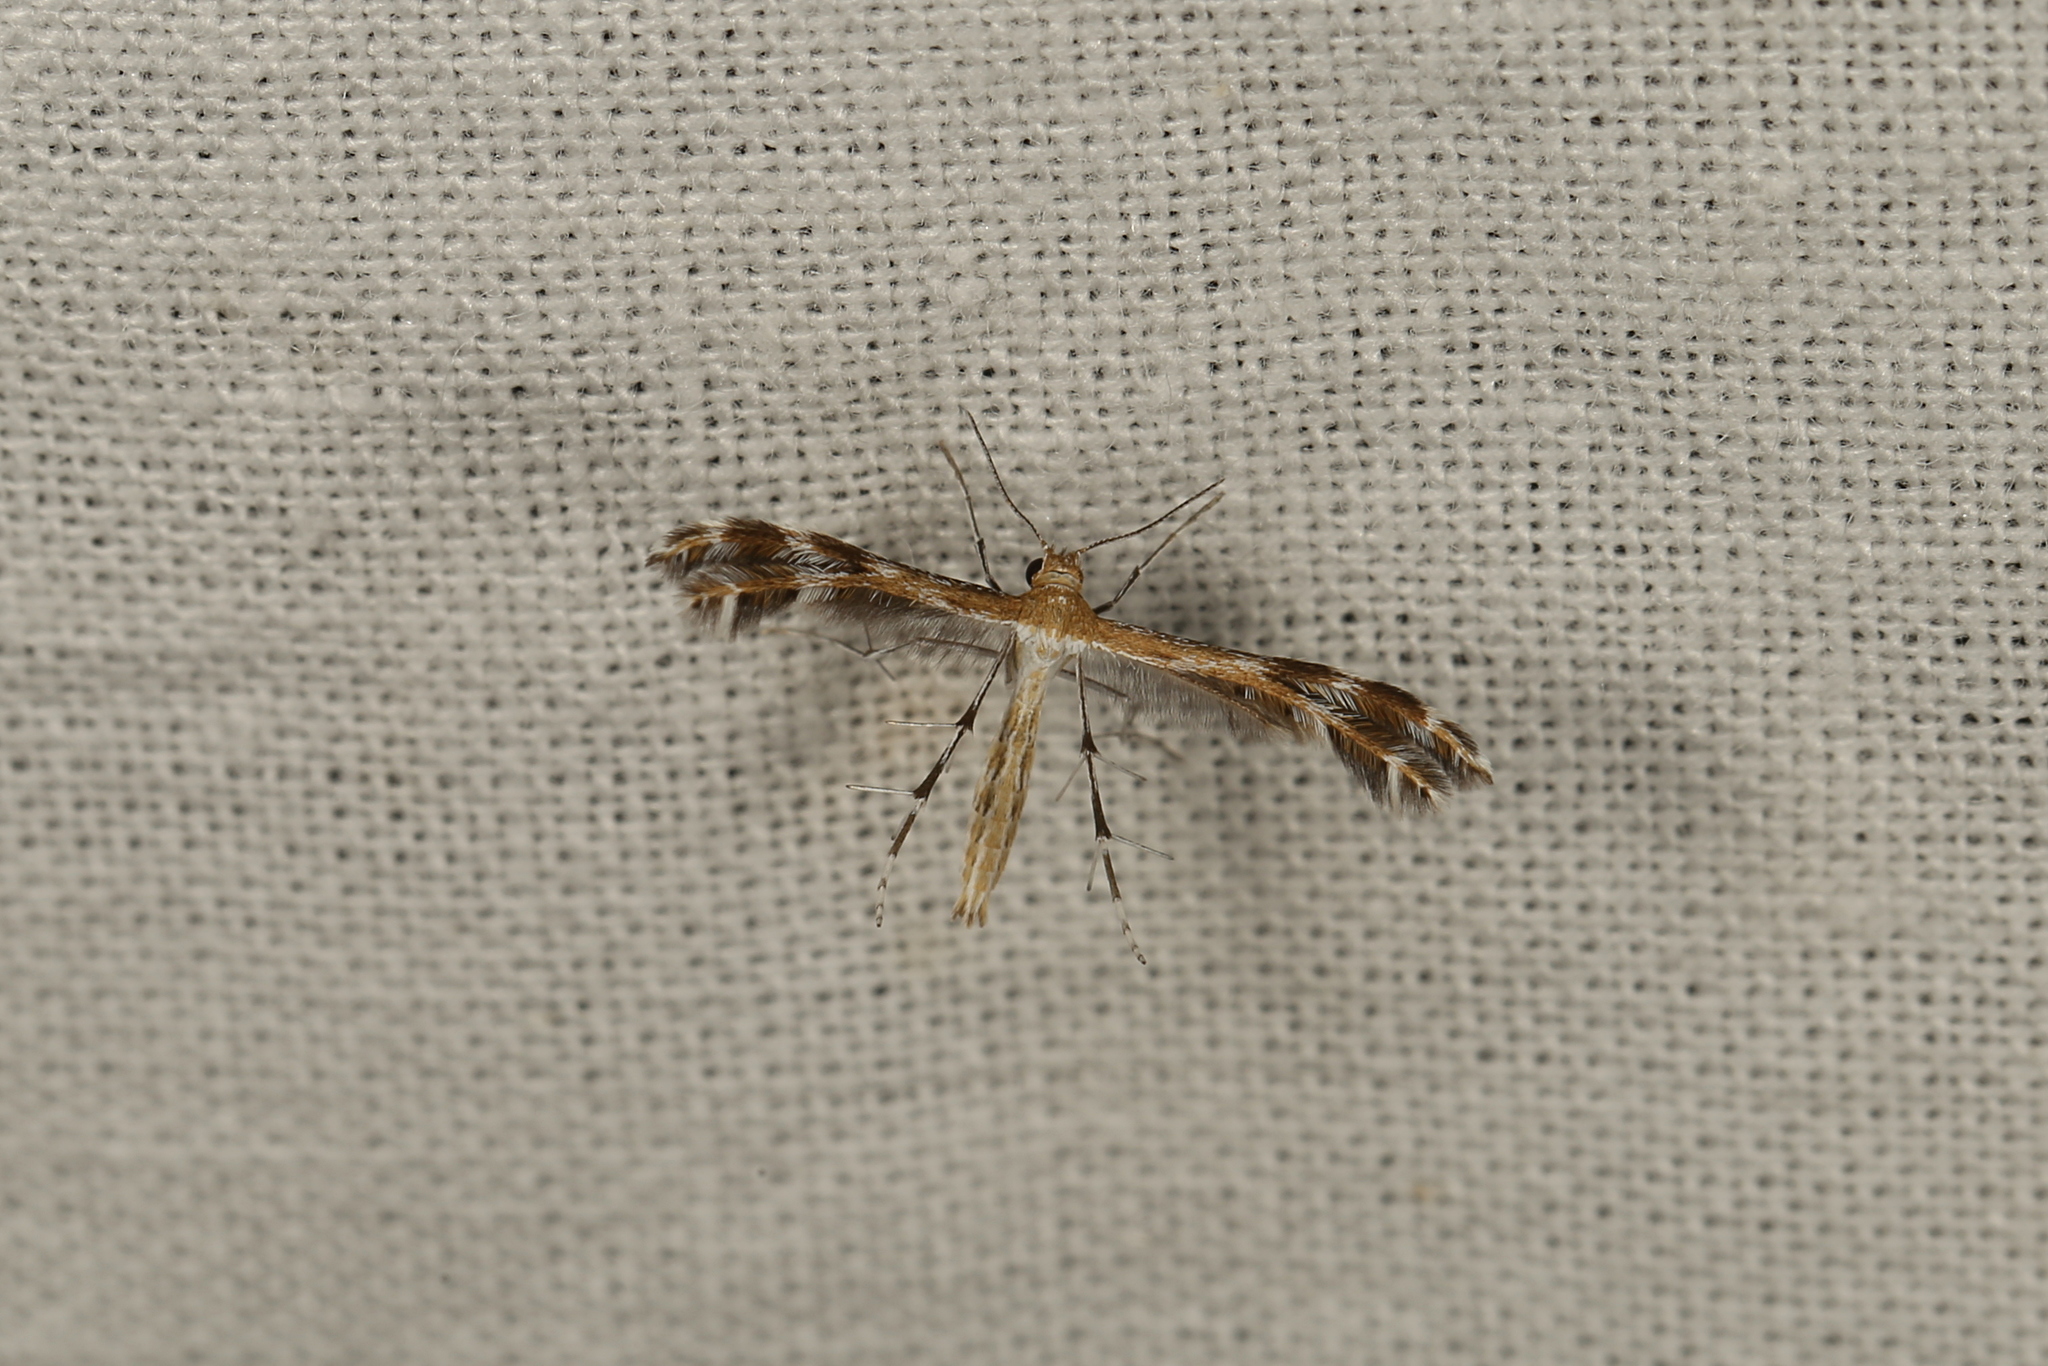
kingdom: Animalia
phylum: Arthropoda
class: Insecta
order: Lepidoptera
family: Pterophoridae
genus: Stangeia
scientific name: Stangeia xerodes
